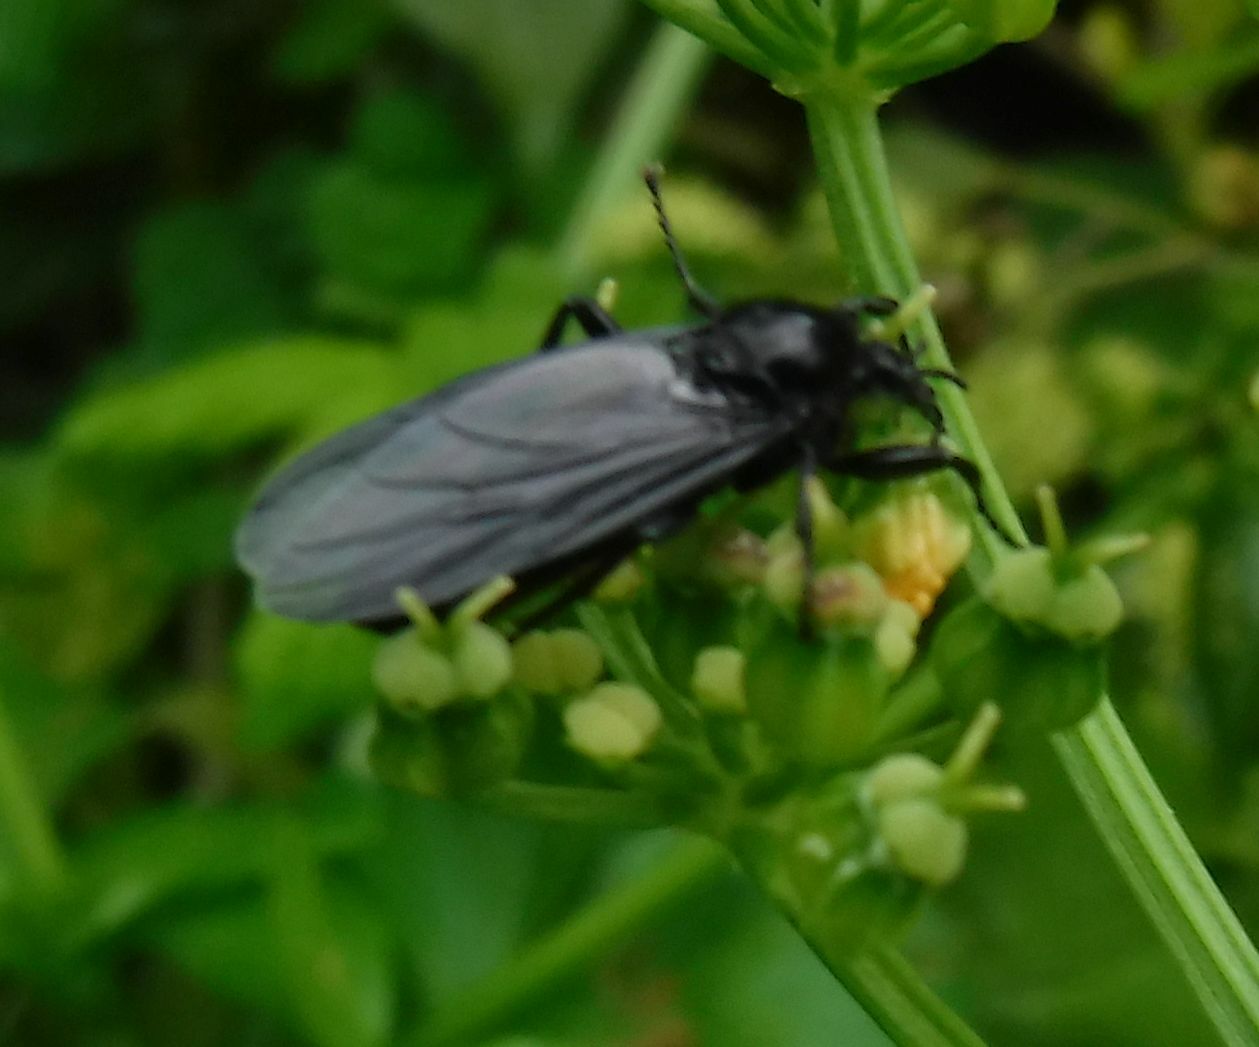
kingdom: Animalia
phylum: Arthropoda
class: Insecta
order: Diptera
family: Bibionidae
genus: Bibio
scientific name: Bibio marci
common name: St marks fly
